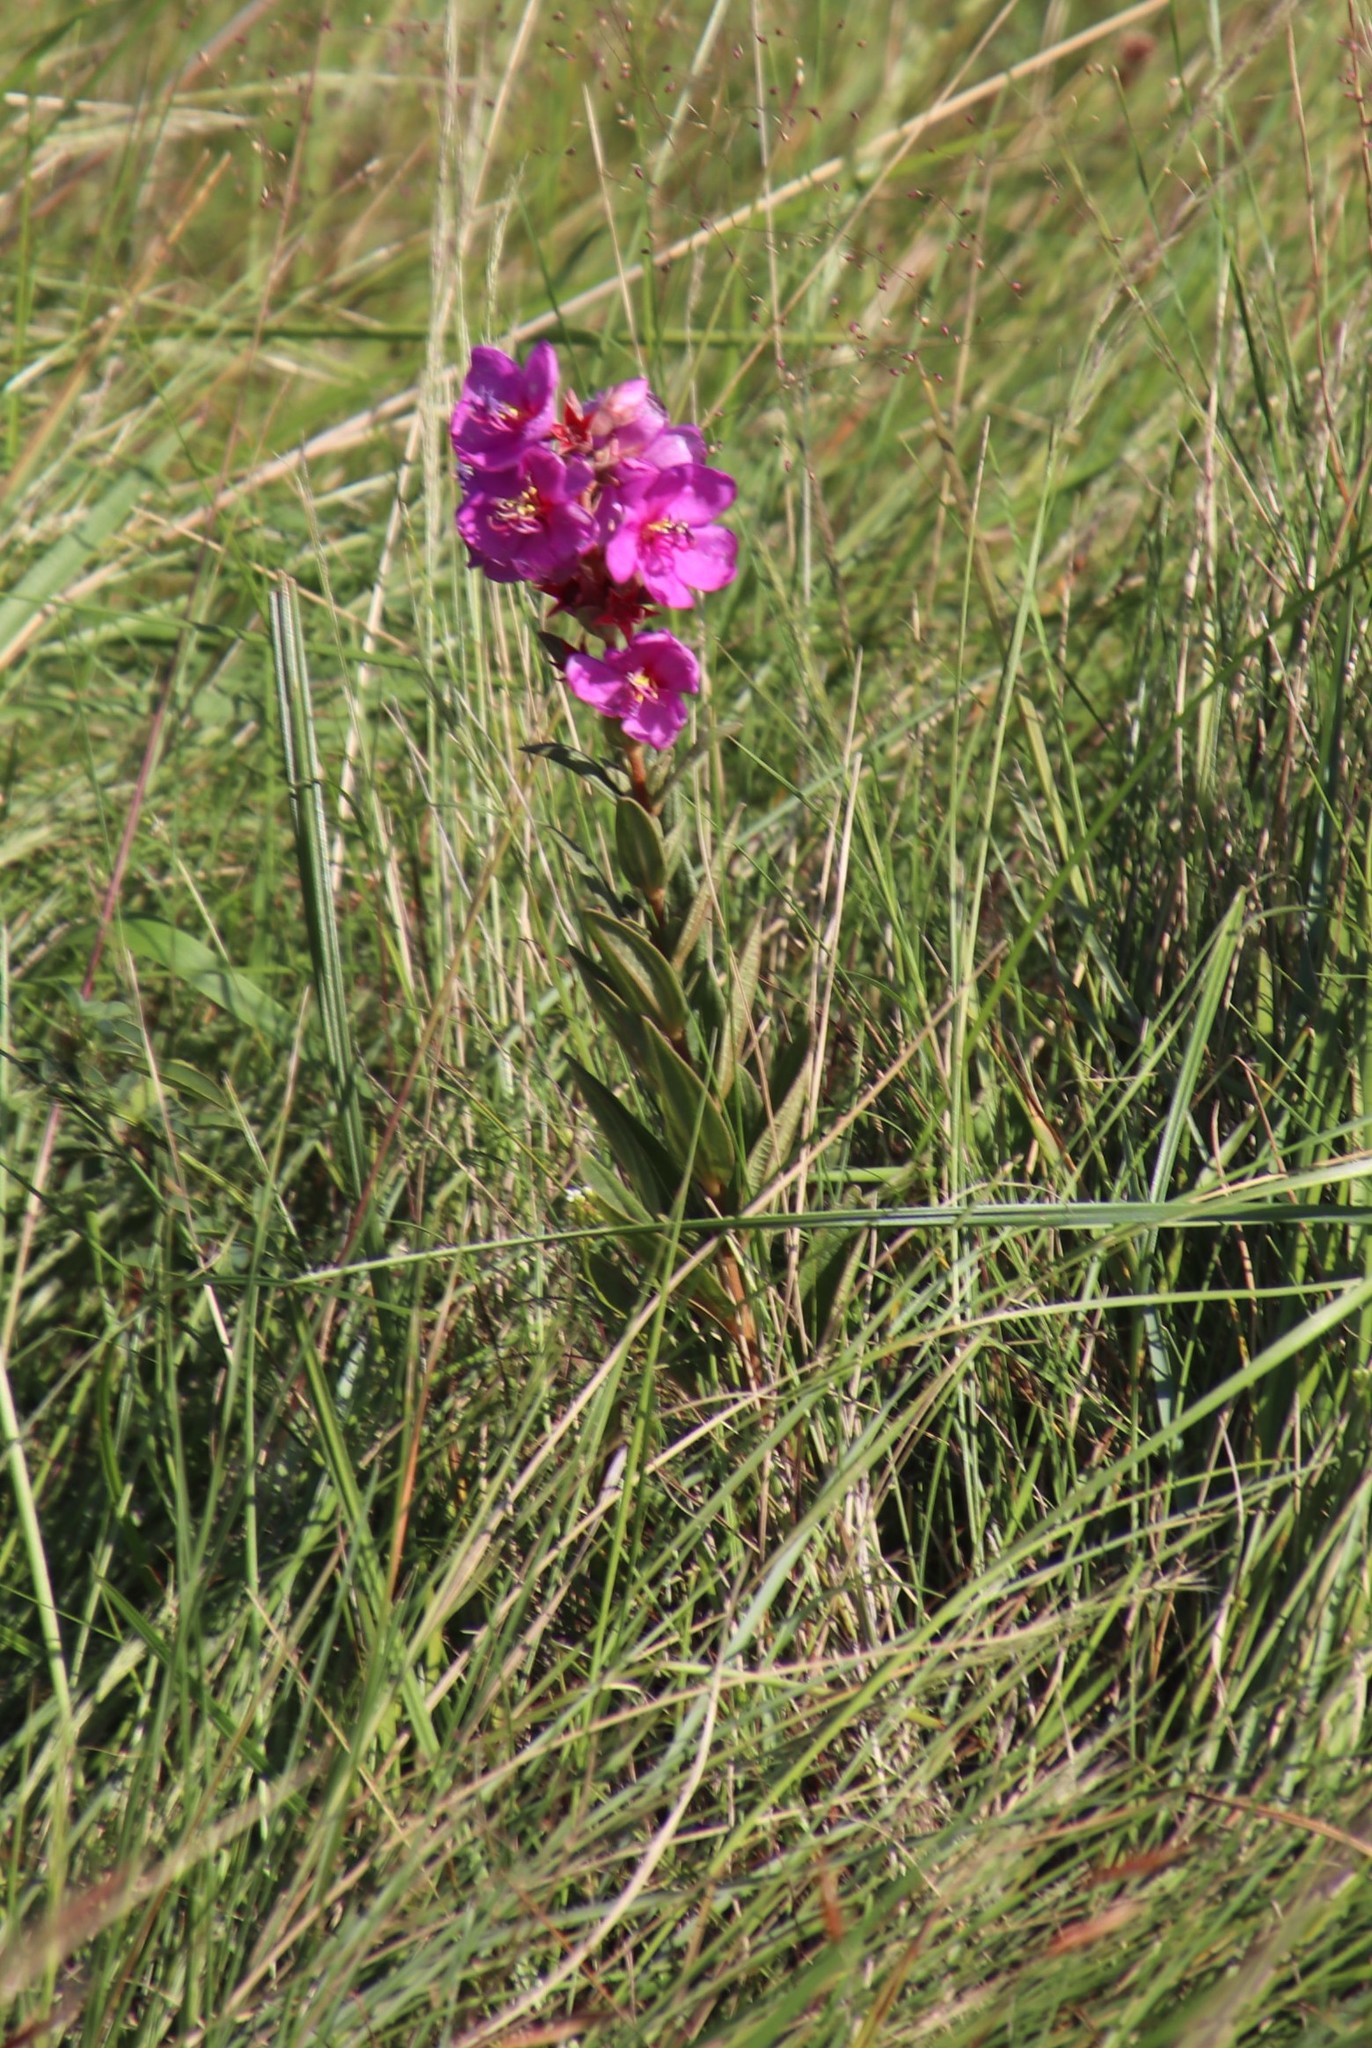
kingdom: Plantae
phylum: Tracheophyta
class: Magnoliopsida
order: Myrtales
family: Melastomataceae
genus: Argyrella
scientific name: Argyrella canescens
